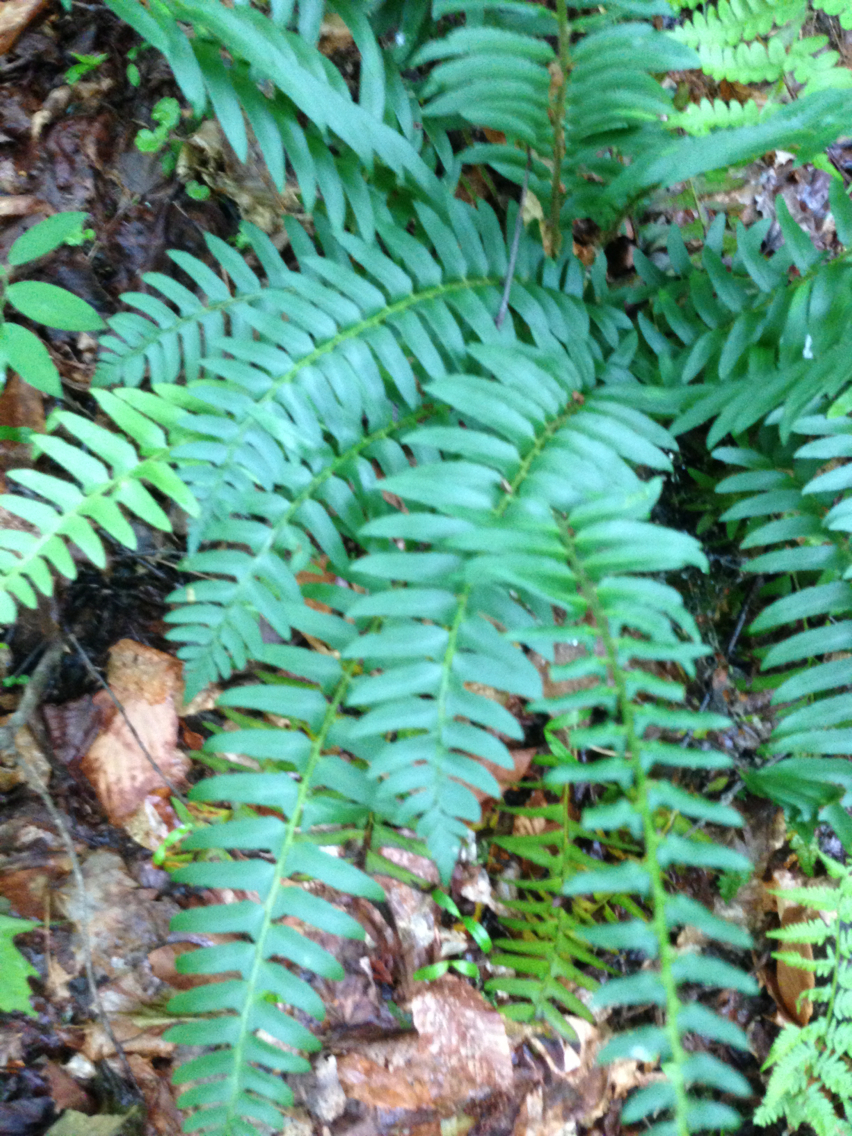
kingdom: Plantae
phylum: Tracheophyta
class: Polypodiopsida
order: Polypodiales
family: Dryopteridaceae
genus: Polystichum
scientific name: Polystichum acrostichoides
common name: Christmas fern
